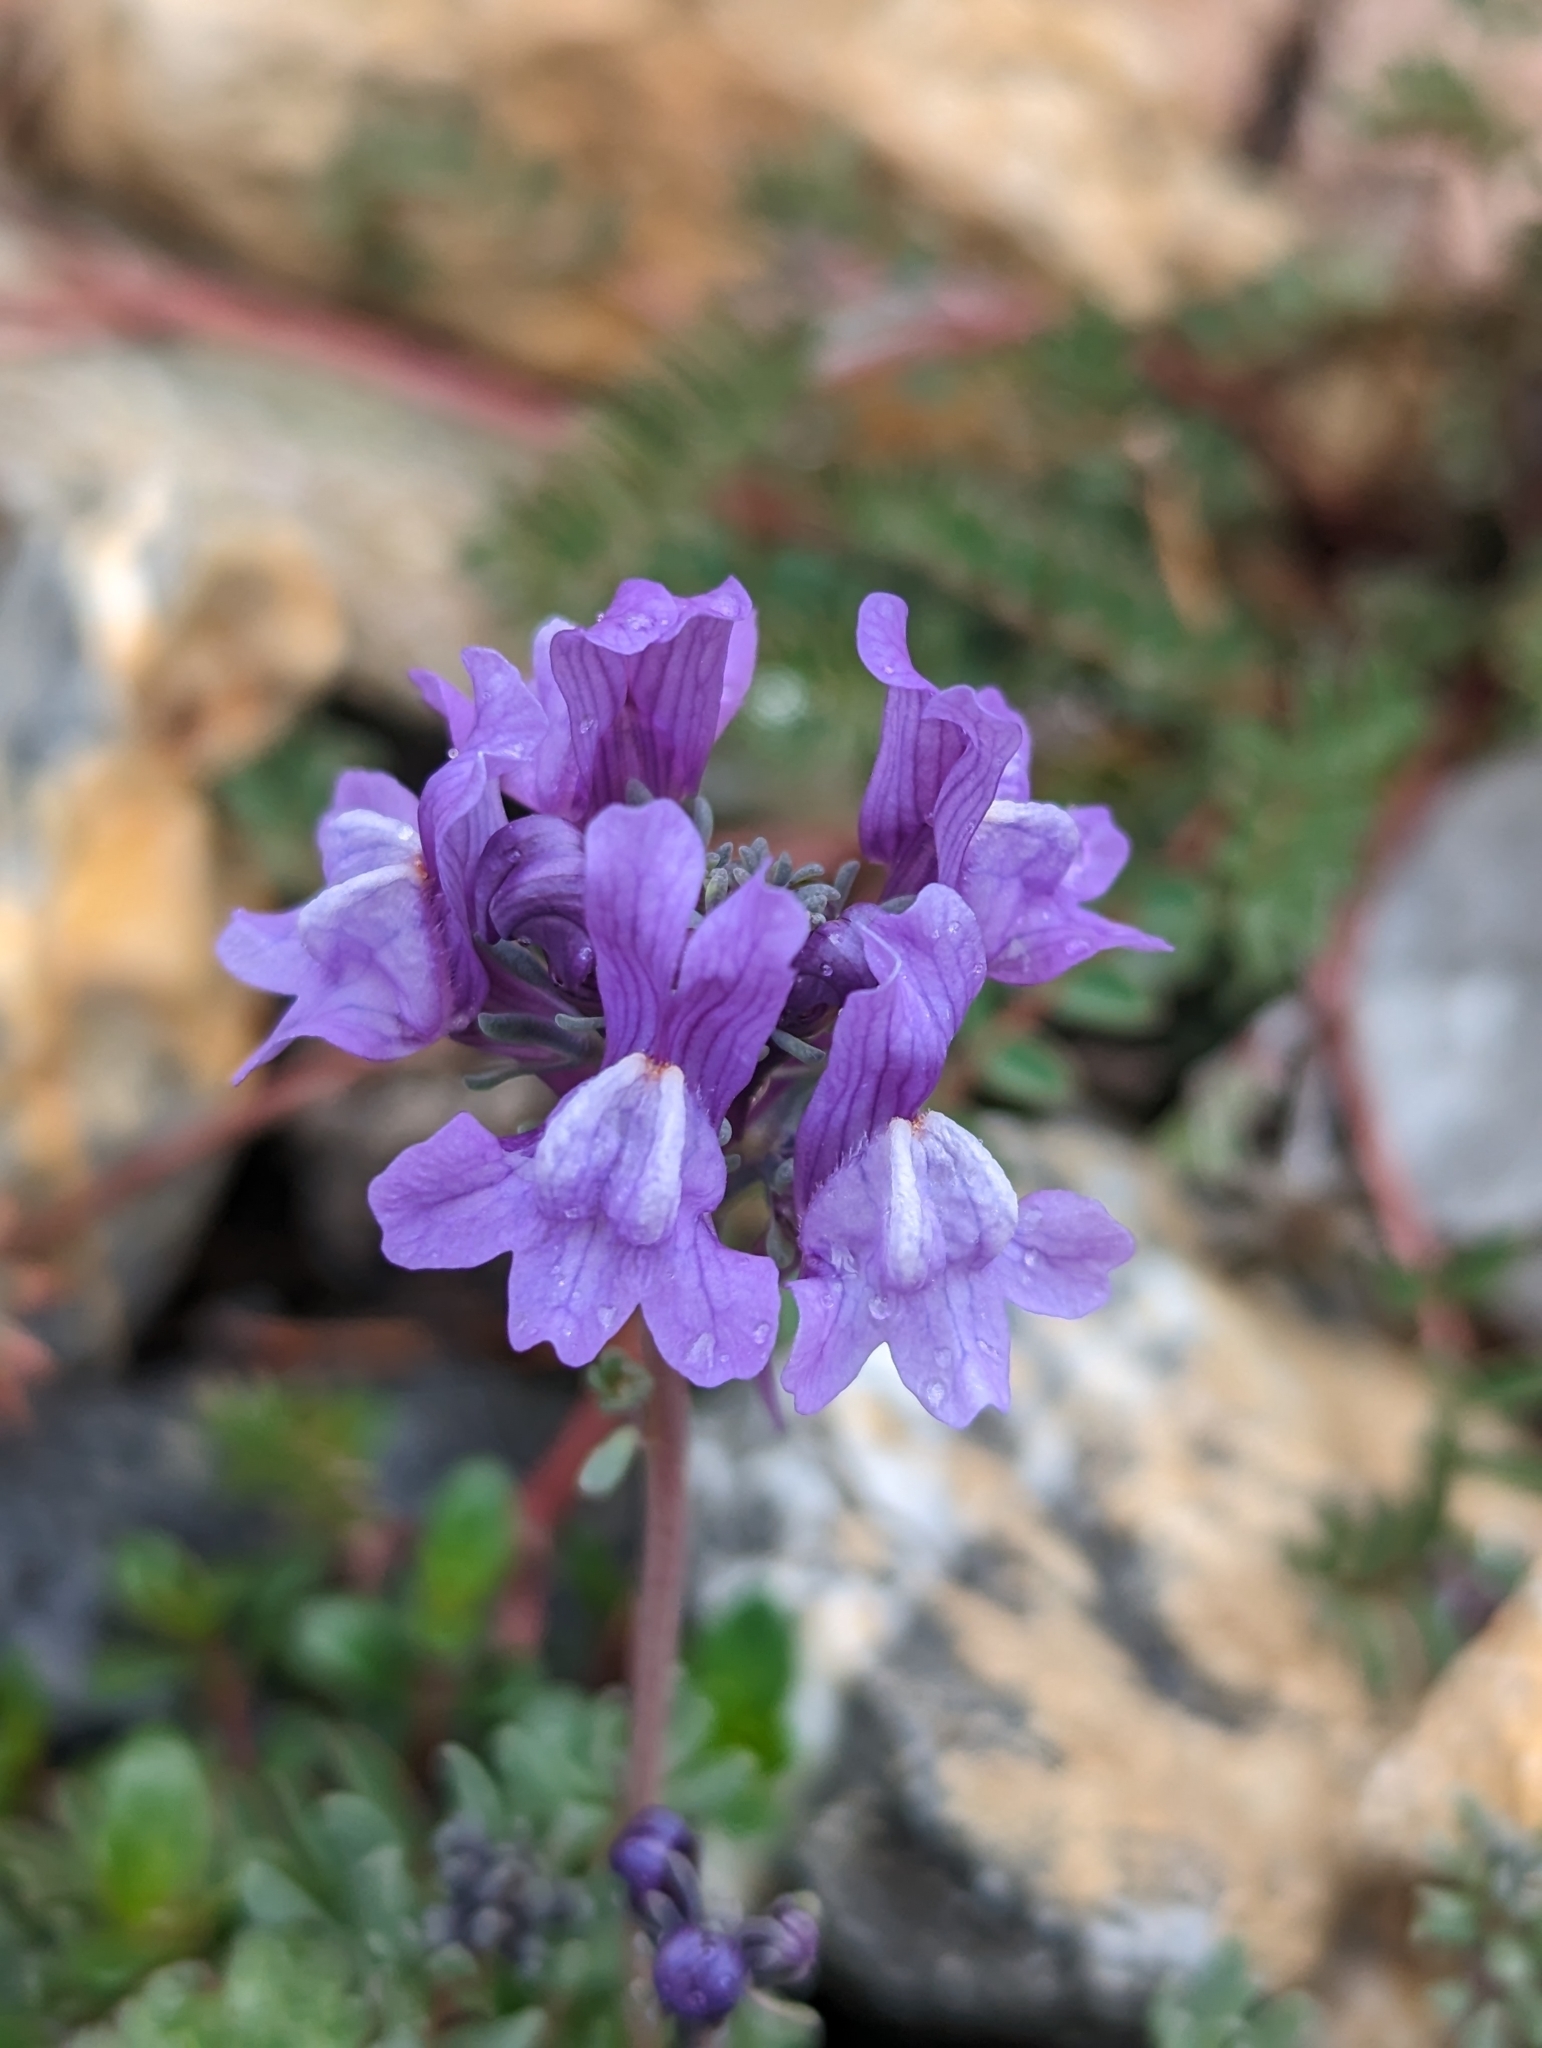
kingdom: Plantae
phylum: Tracheophyta
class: Magnoliopsida
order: Lamiales
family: Plantaginaceae
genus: Linaria
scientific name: Linaria alpina
